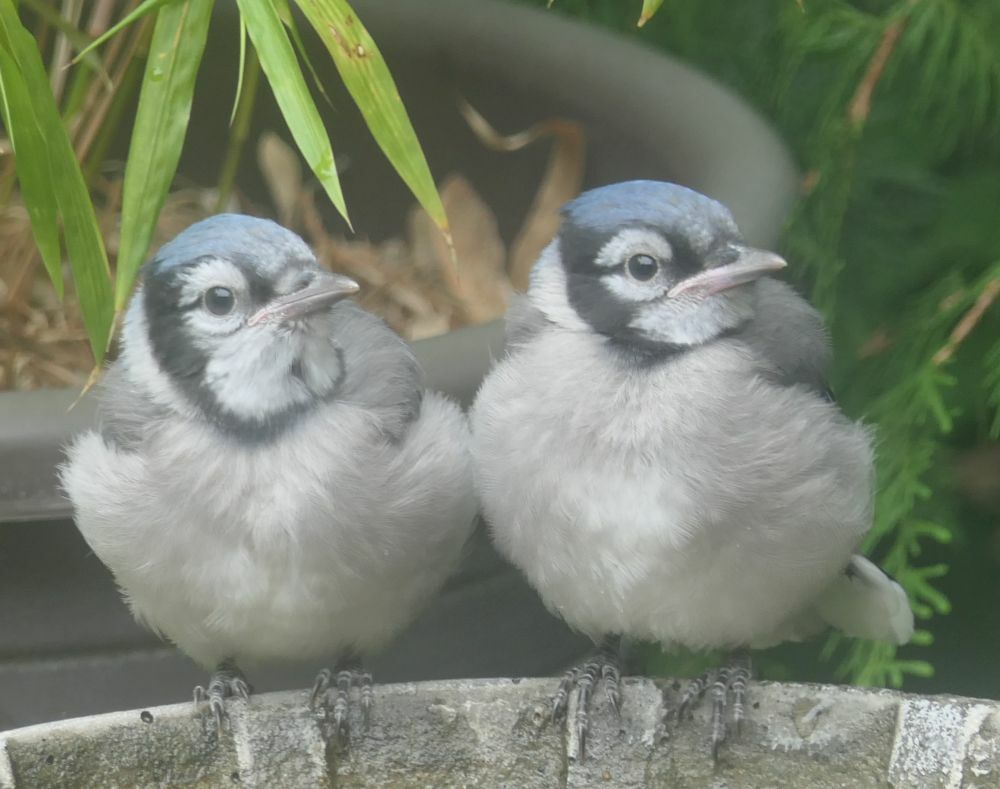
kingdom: Animalia
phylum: Chordata
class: Aves
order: Passeriformes
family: Corvidae
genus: Cyanocitta
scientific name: Cyanocitta cristata
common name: Blue jay
